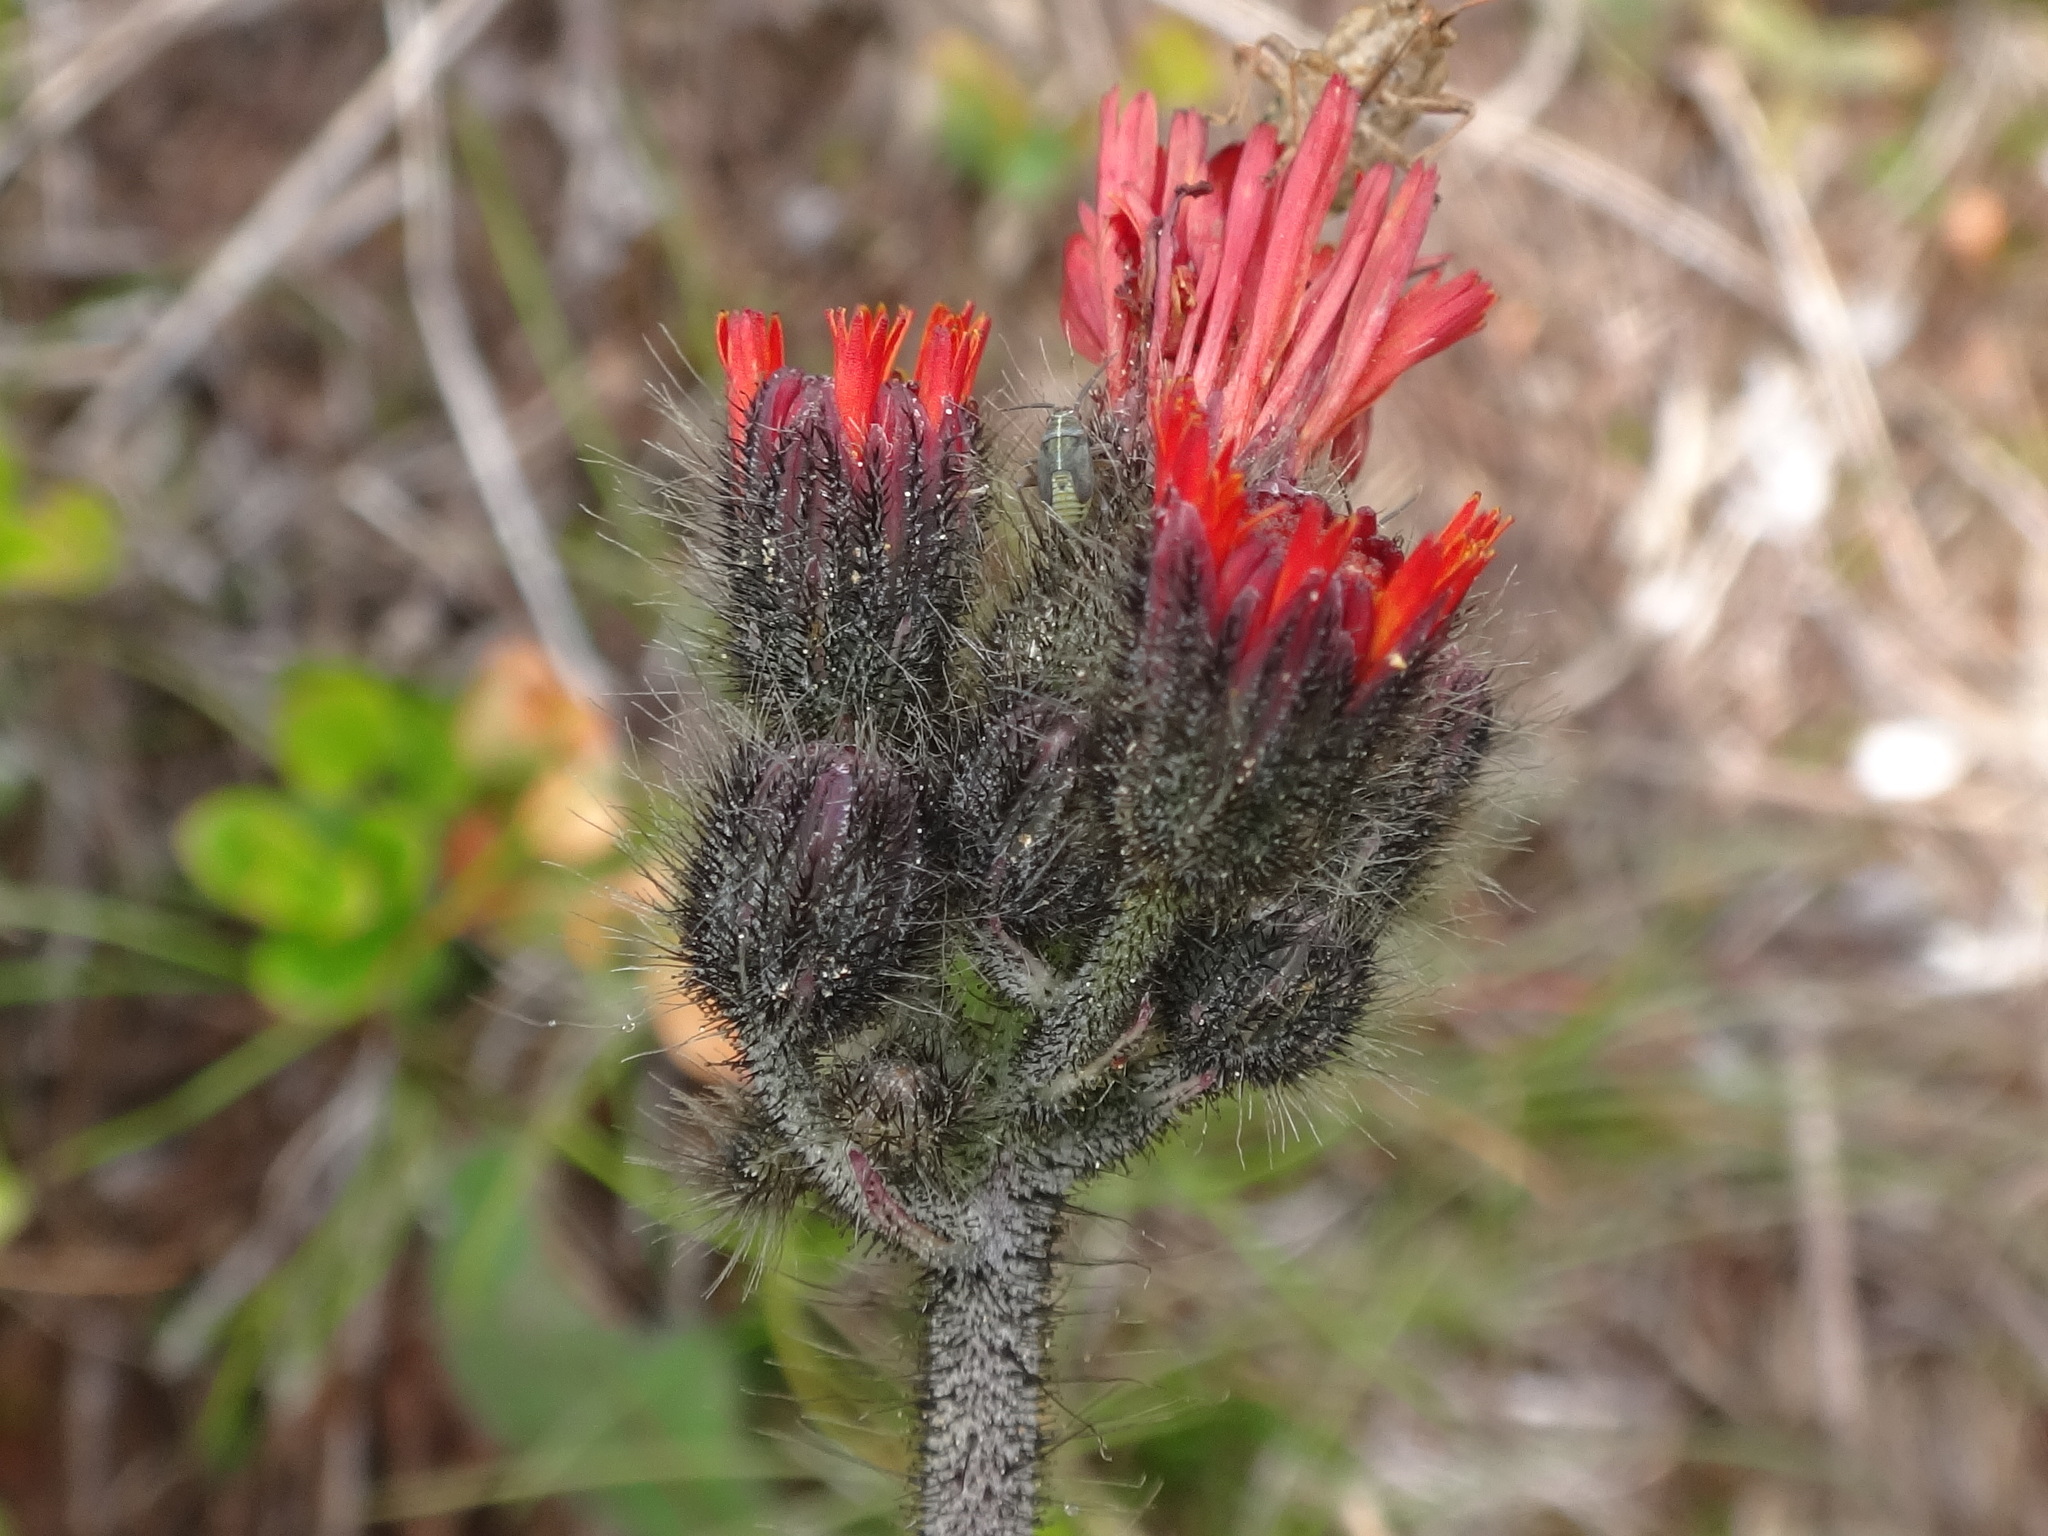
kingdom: Plantae
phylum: Tracheophyta
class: Magnoliopsida
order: Asterales
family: Asteraceae
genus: Pilosella
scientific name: Pilosella aurantiaca
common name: Fox-and-cubs
